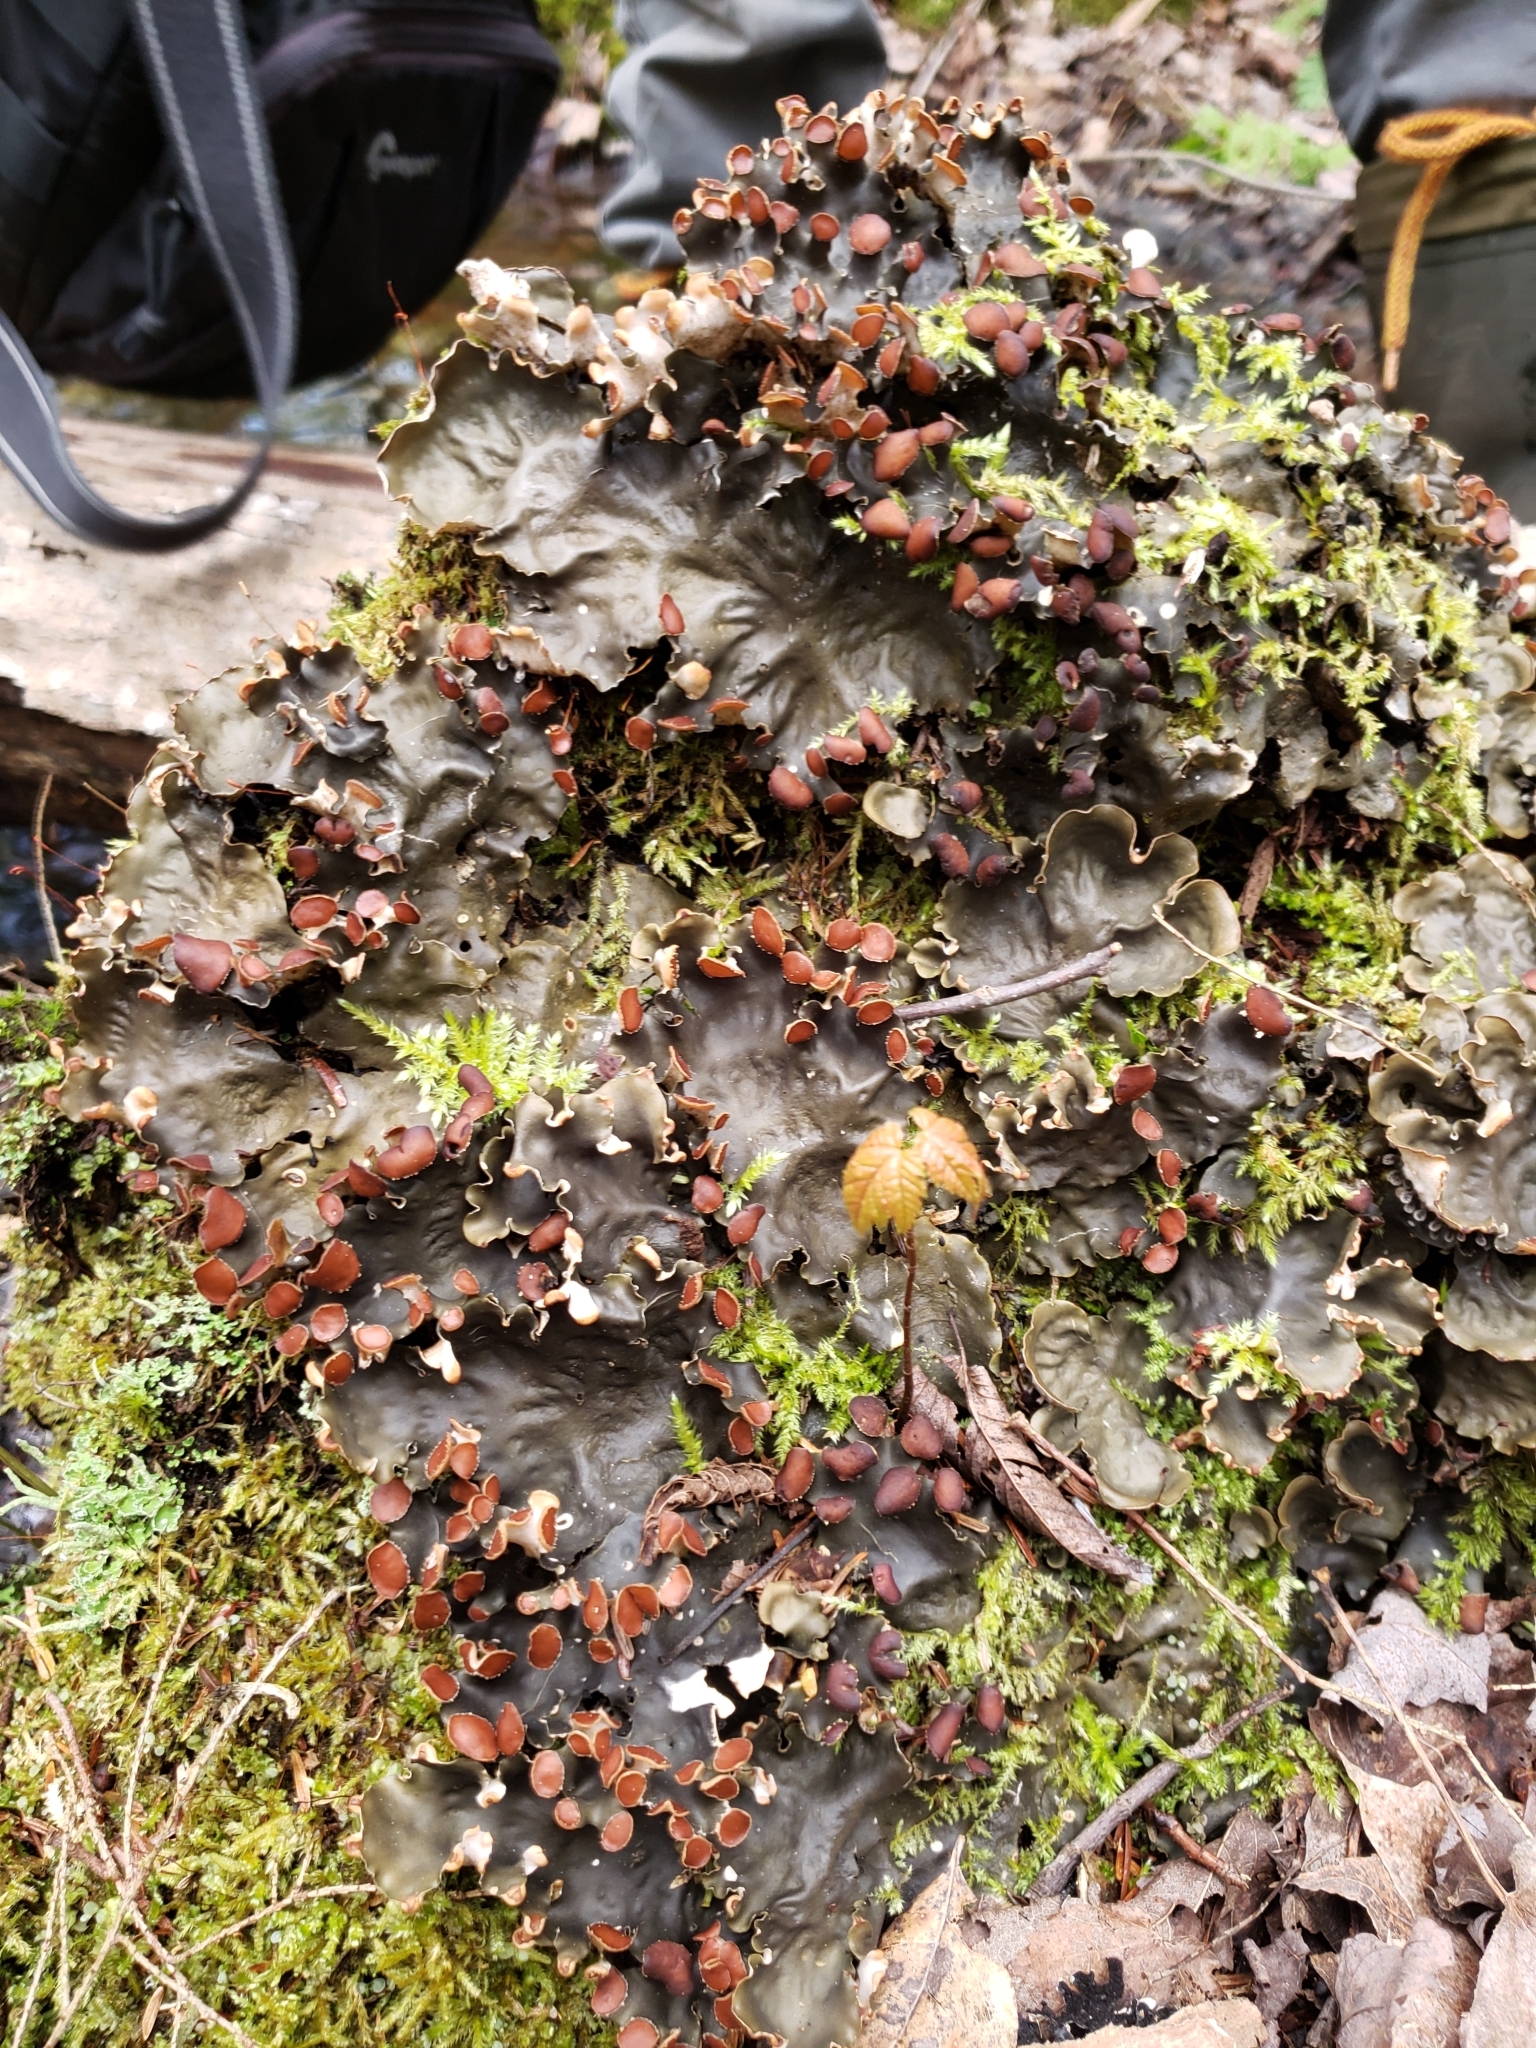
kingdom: Fungi
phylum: Ascomycota
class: Lecanoromycetes
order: Peltigerales
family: Peltigeraceae
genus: Peltigera
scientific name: Peltigera polydactylon
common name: Many-fruited pelt lichen
